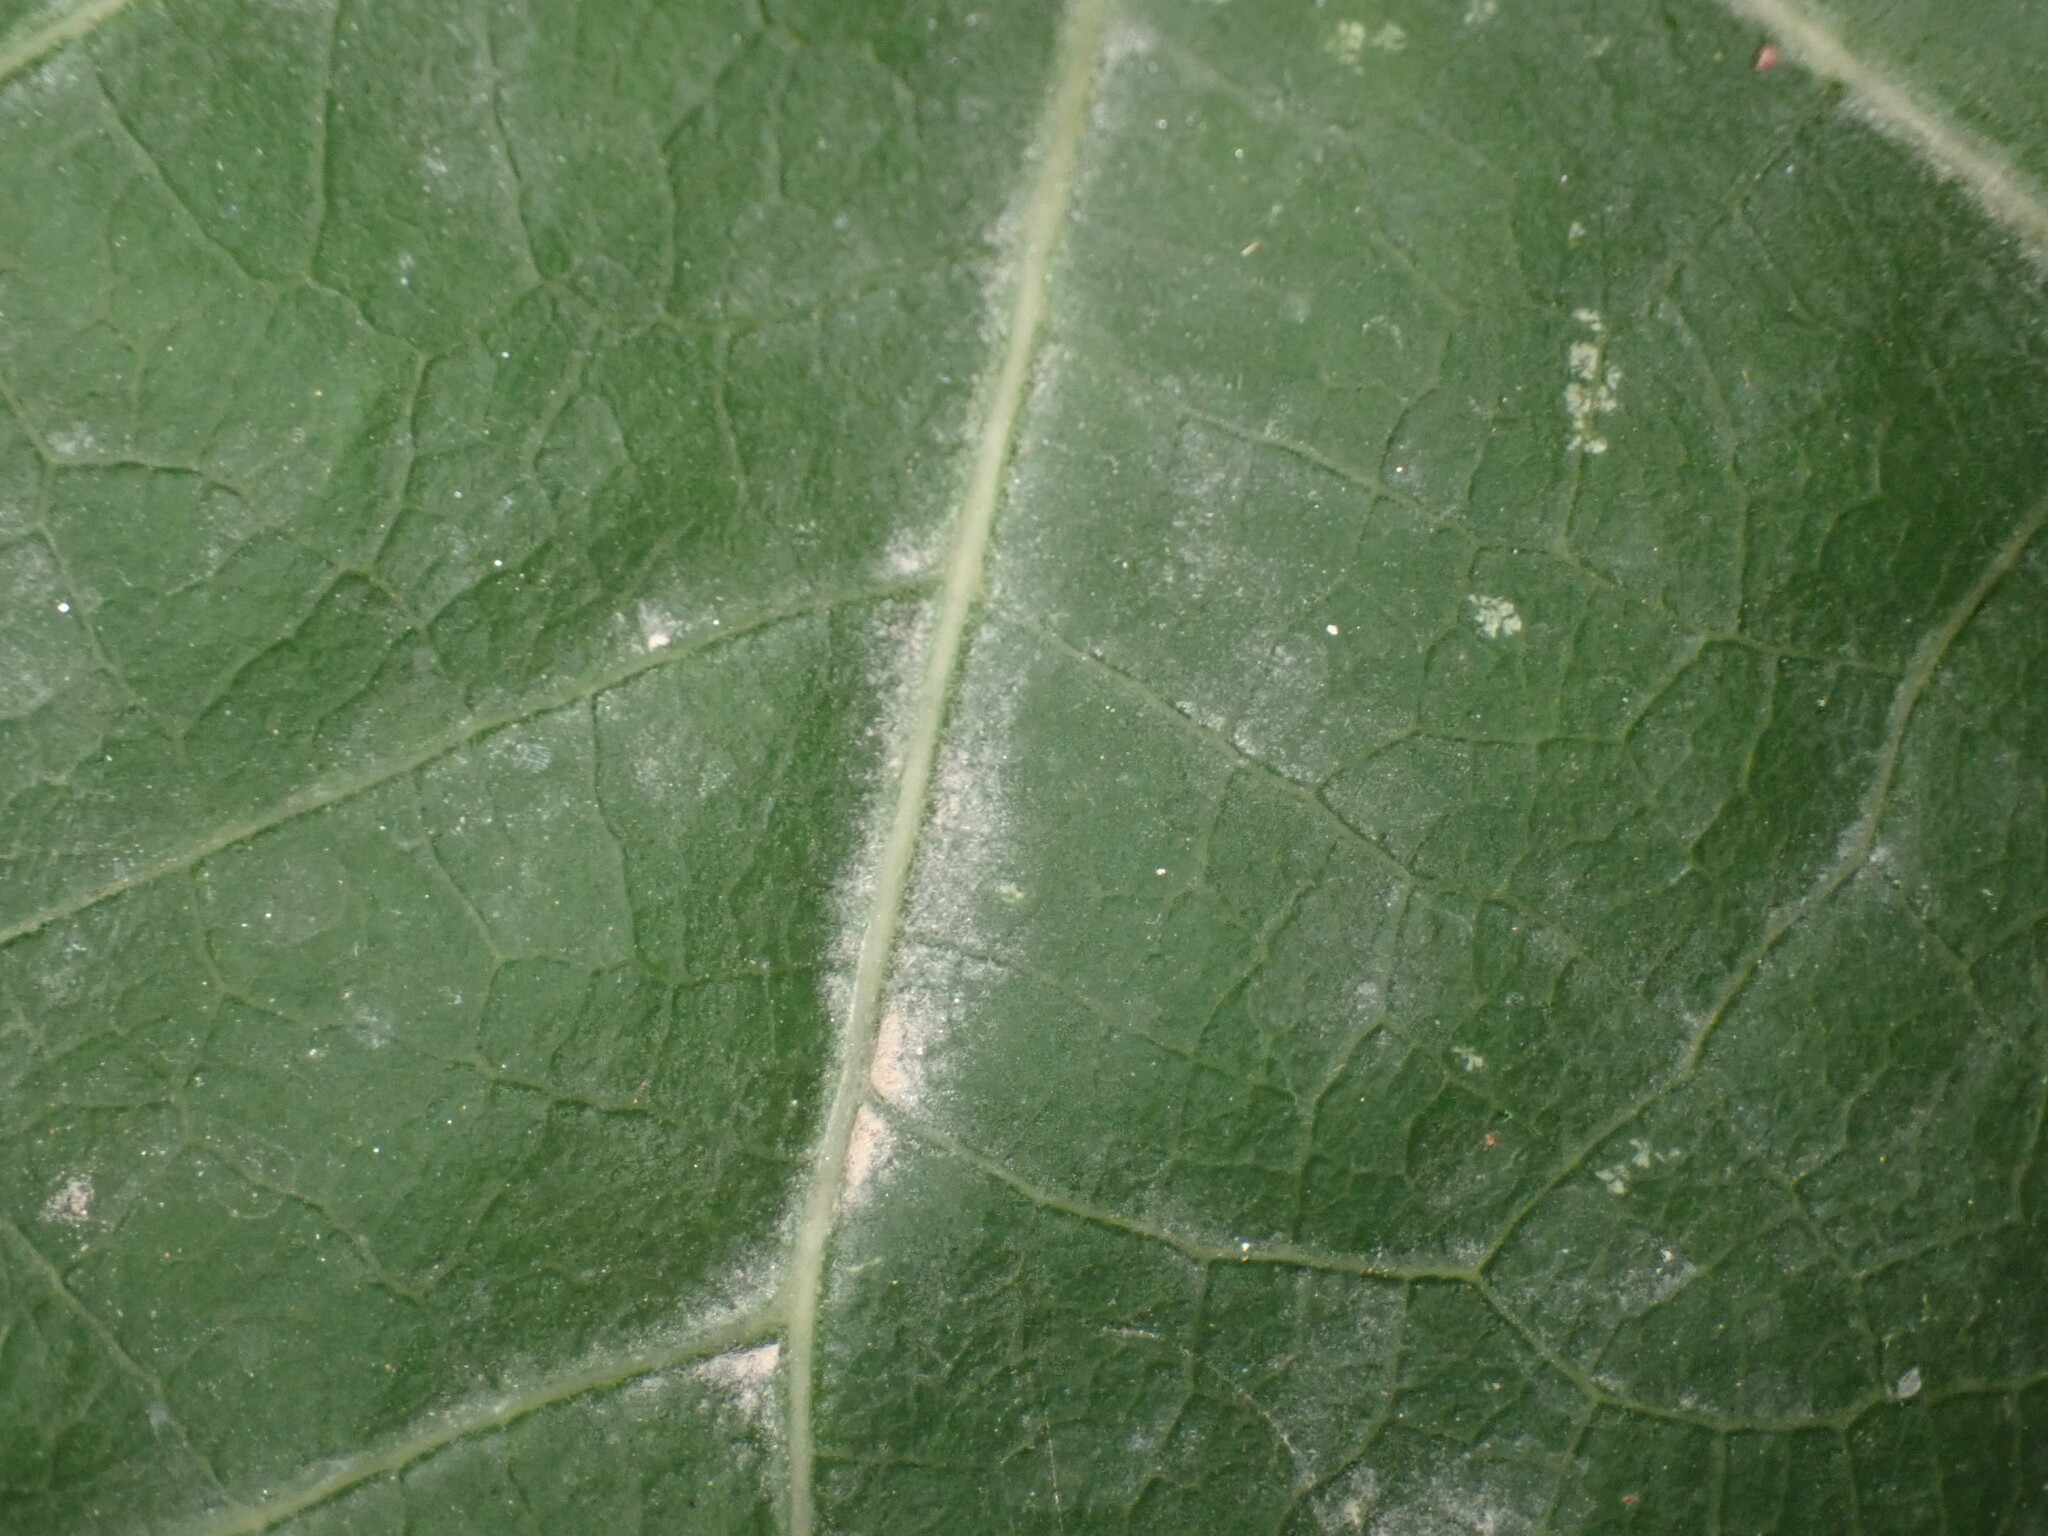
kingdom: Plantae
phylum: Tracheophyta
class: Magnoliopsida
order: Fabales
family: Fabaceae
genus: Cercis
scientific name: Cercis siliquastrum
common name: Judas tree
